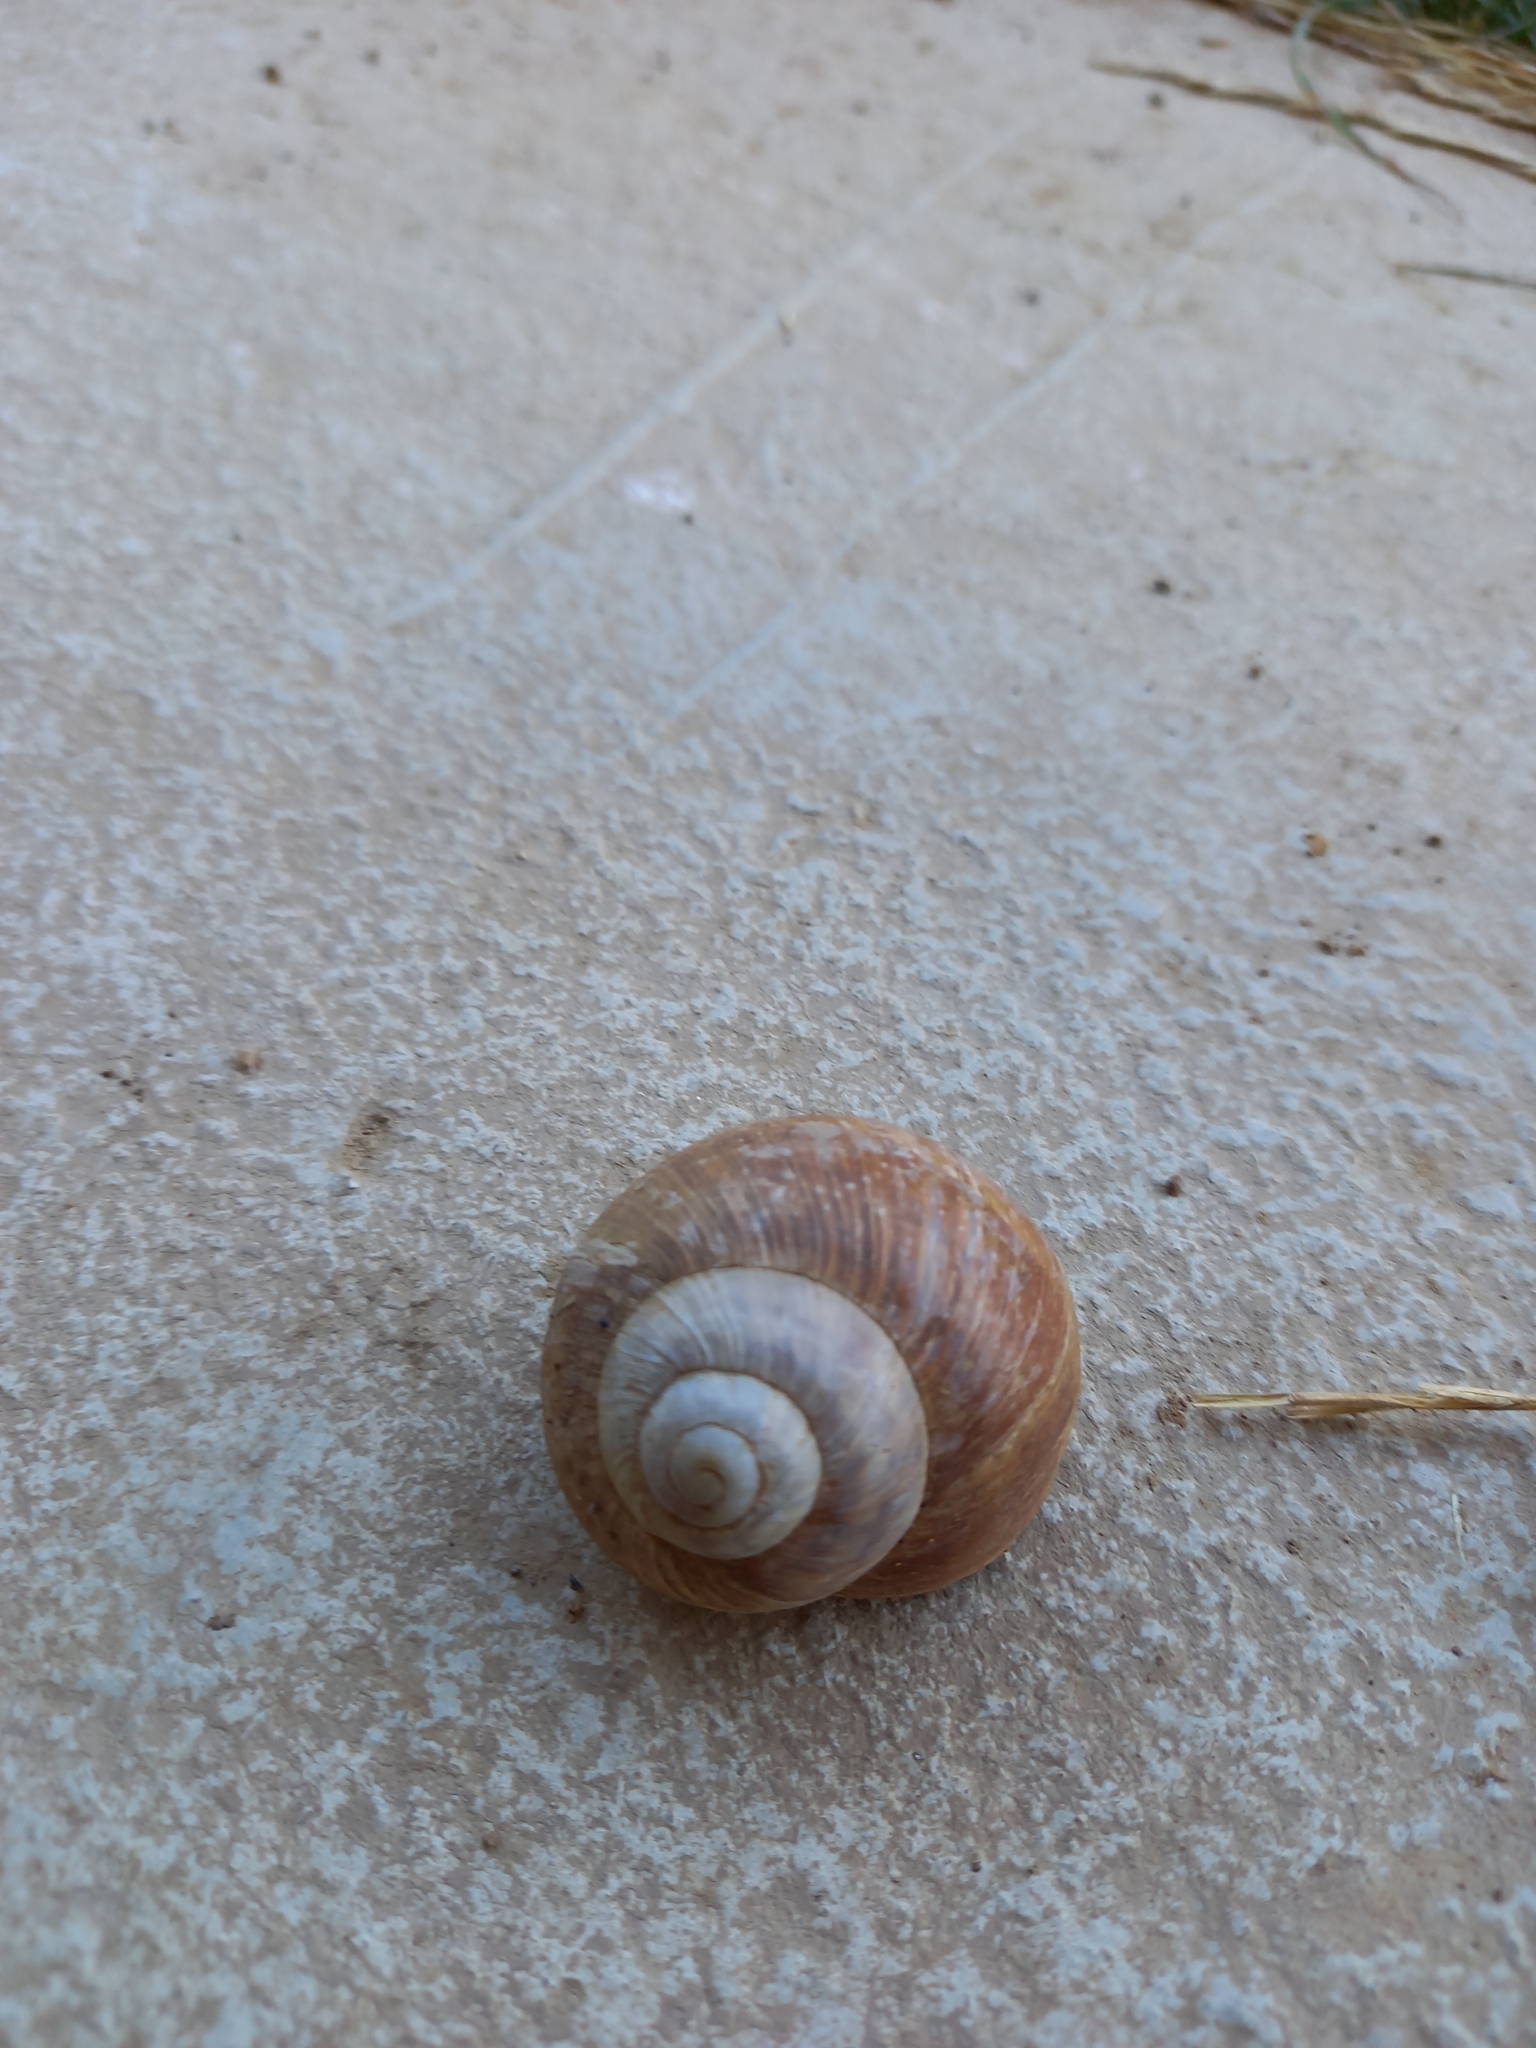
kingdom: Animalia
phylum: Mollusca
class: Gastropoda
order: Stylommatophora
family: Helicidae
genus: Helix
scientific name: Helix pomatia
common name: Roman snail
